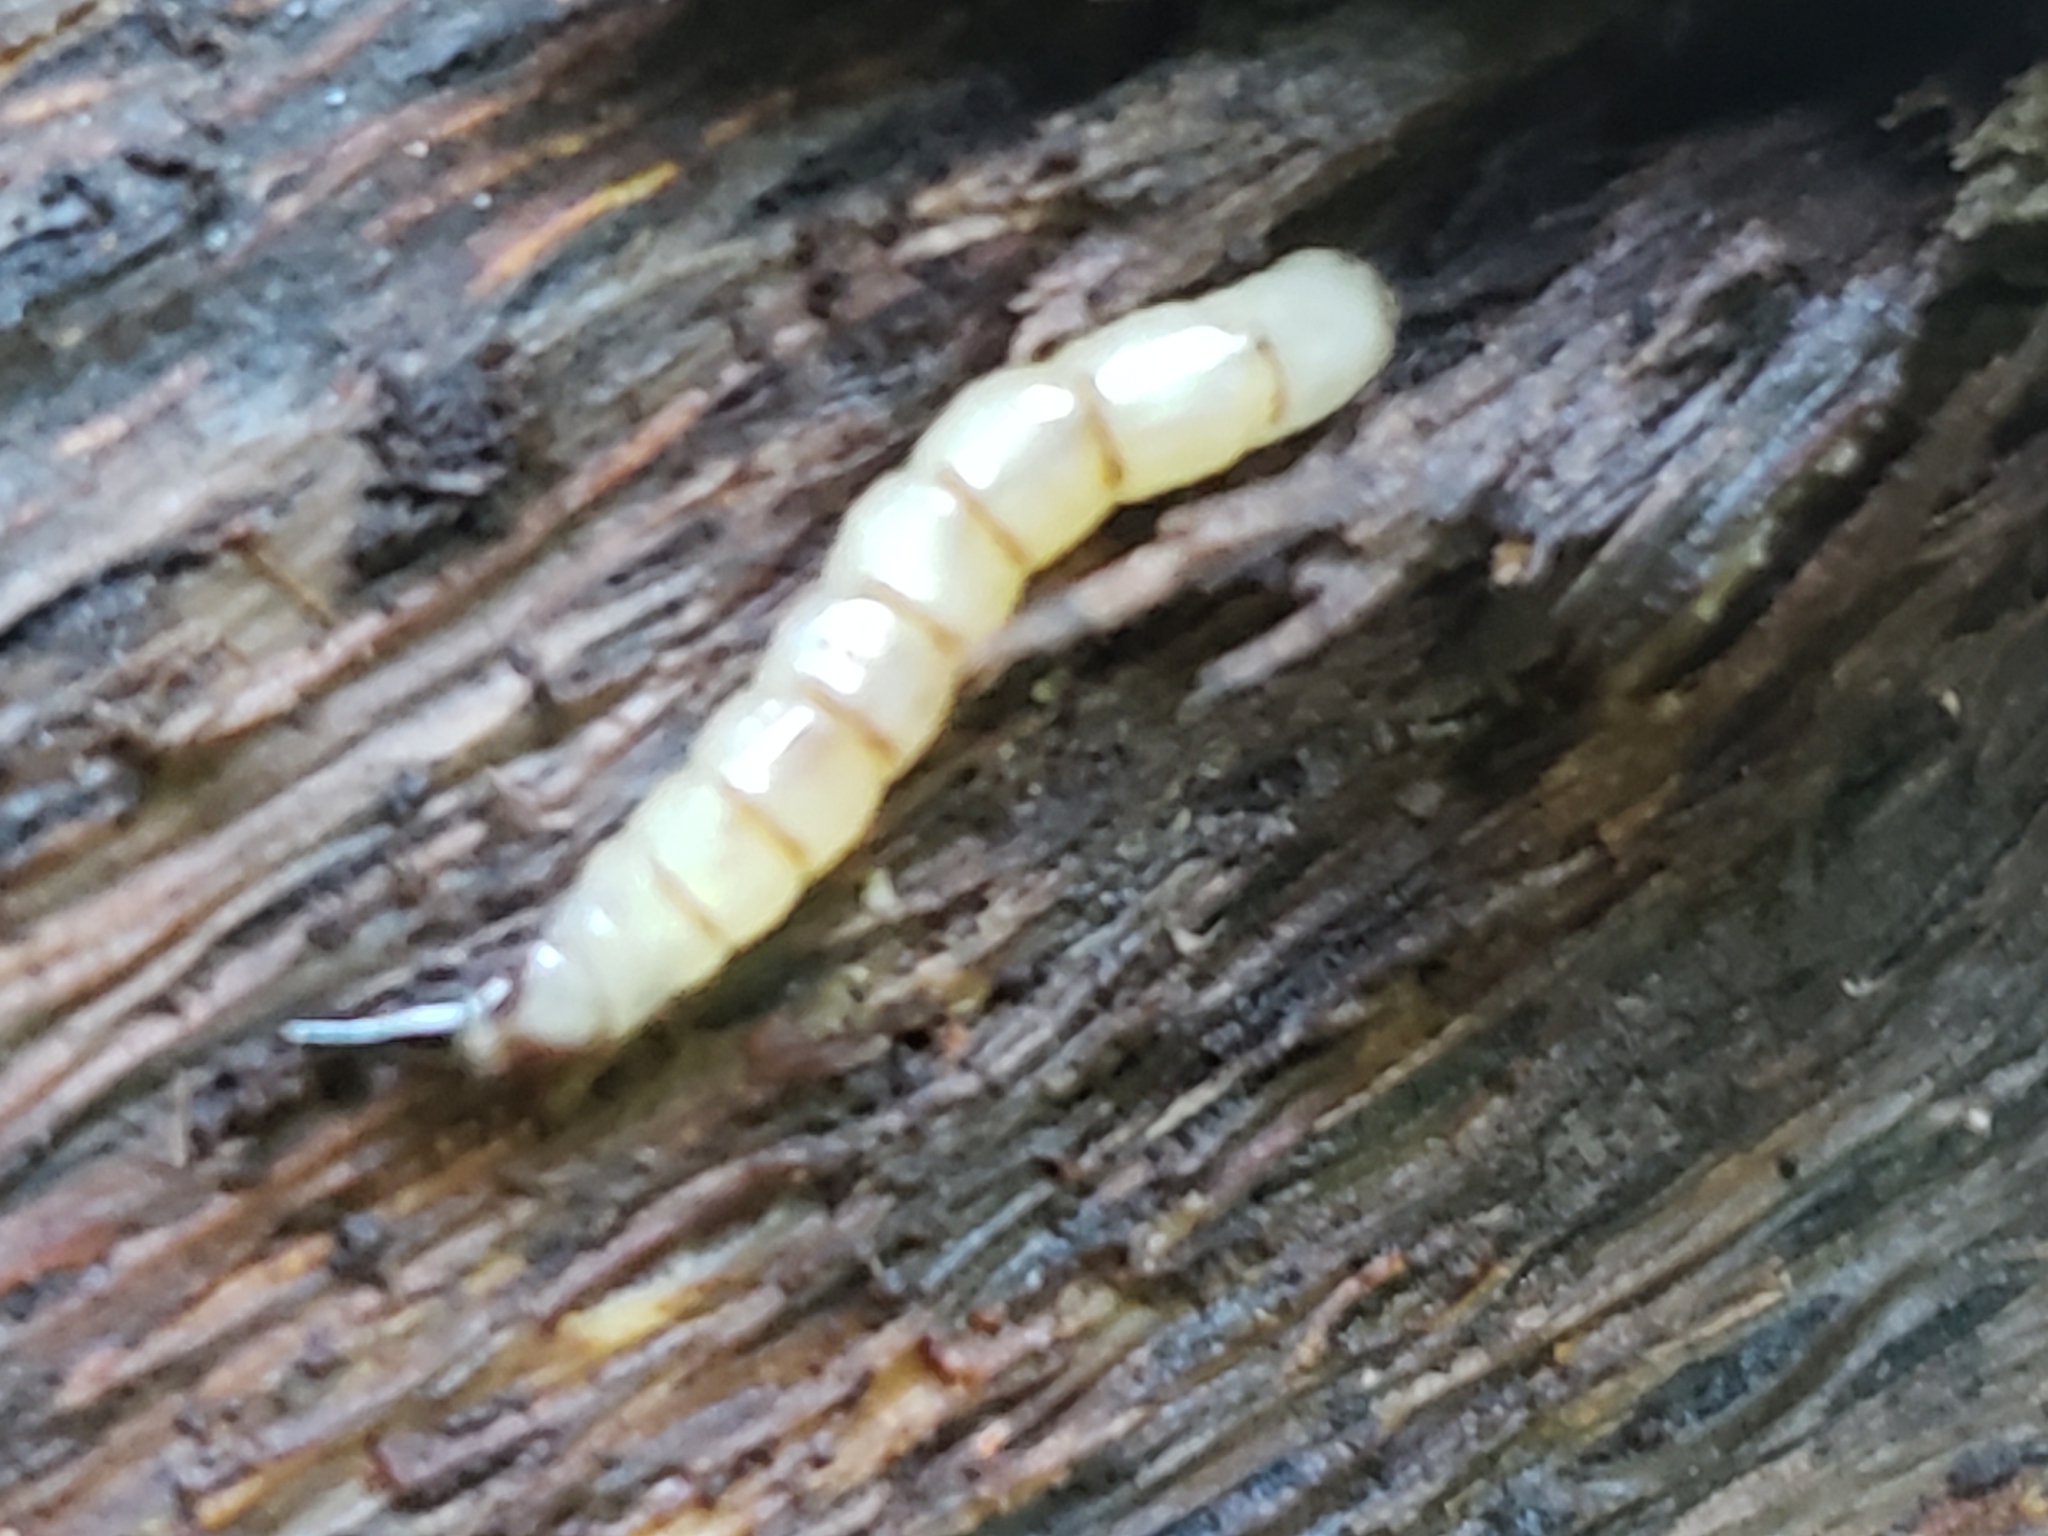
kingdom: Animalia
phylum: Arthropoda
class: Insecta
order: Diptera
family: Xylophagidae
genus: Xylophagus
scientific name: Xylophagus
